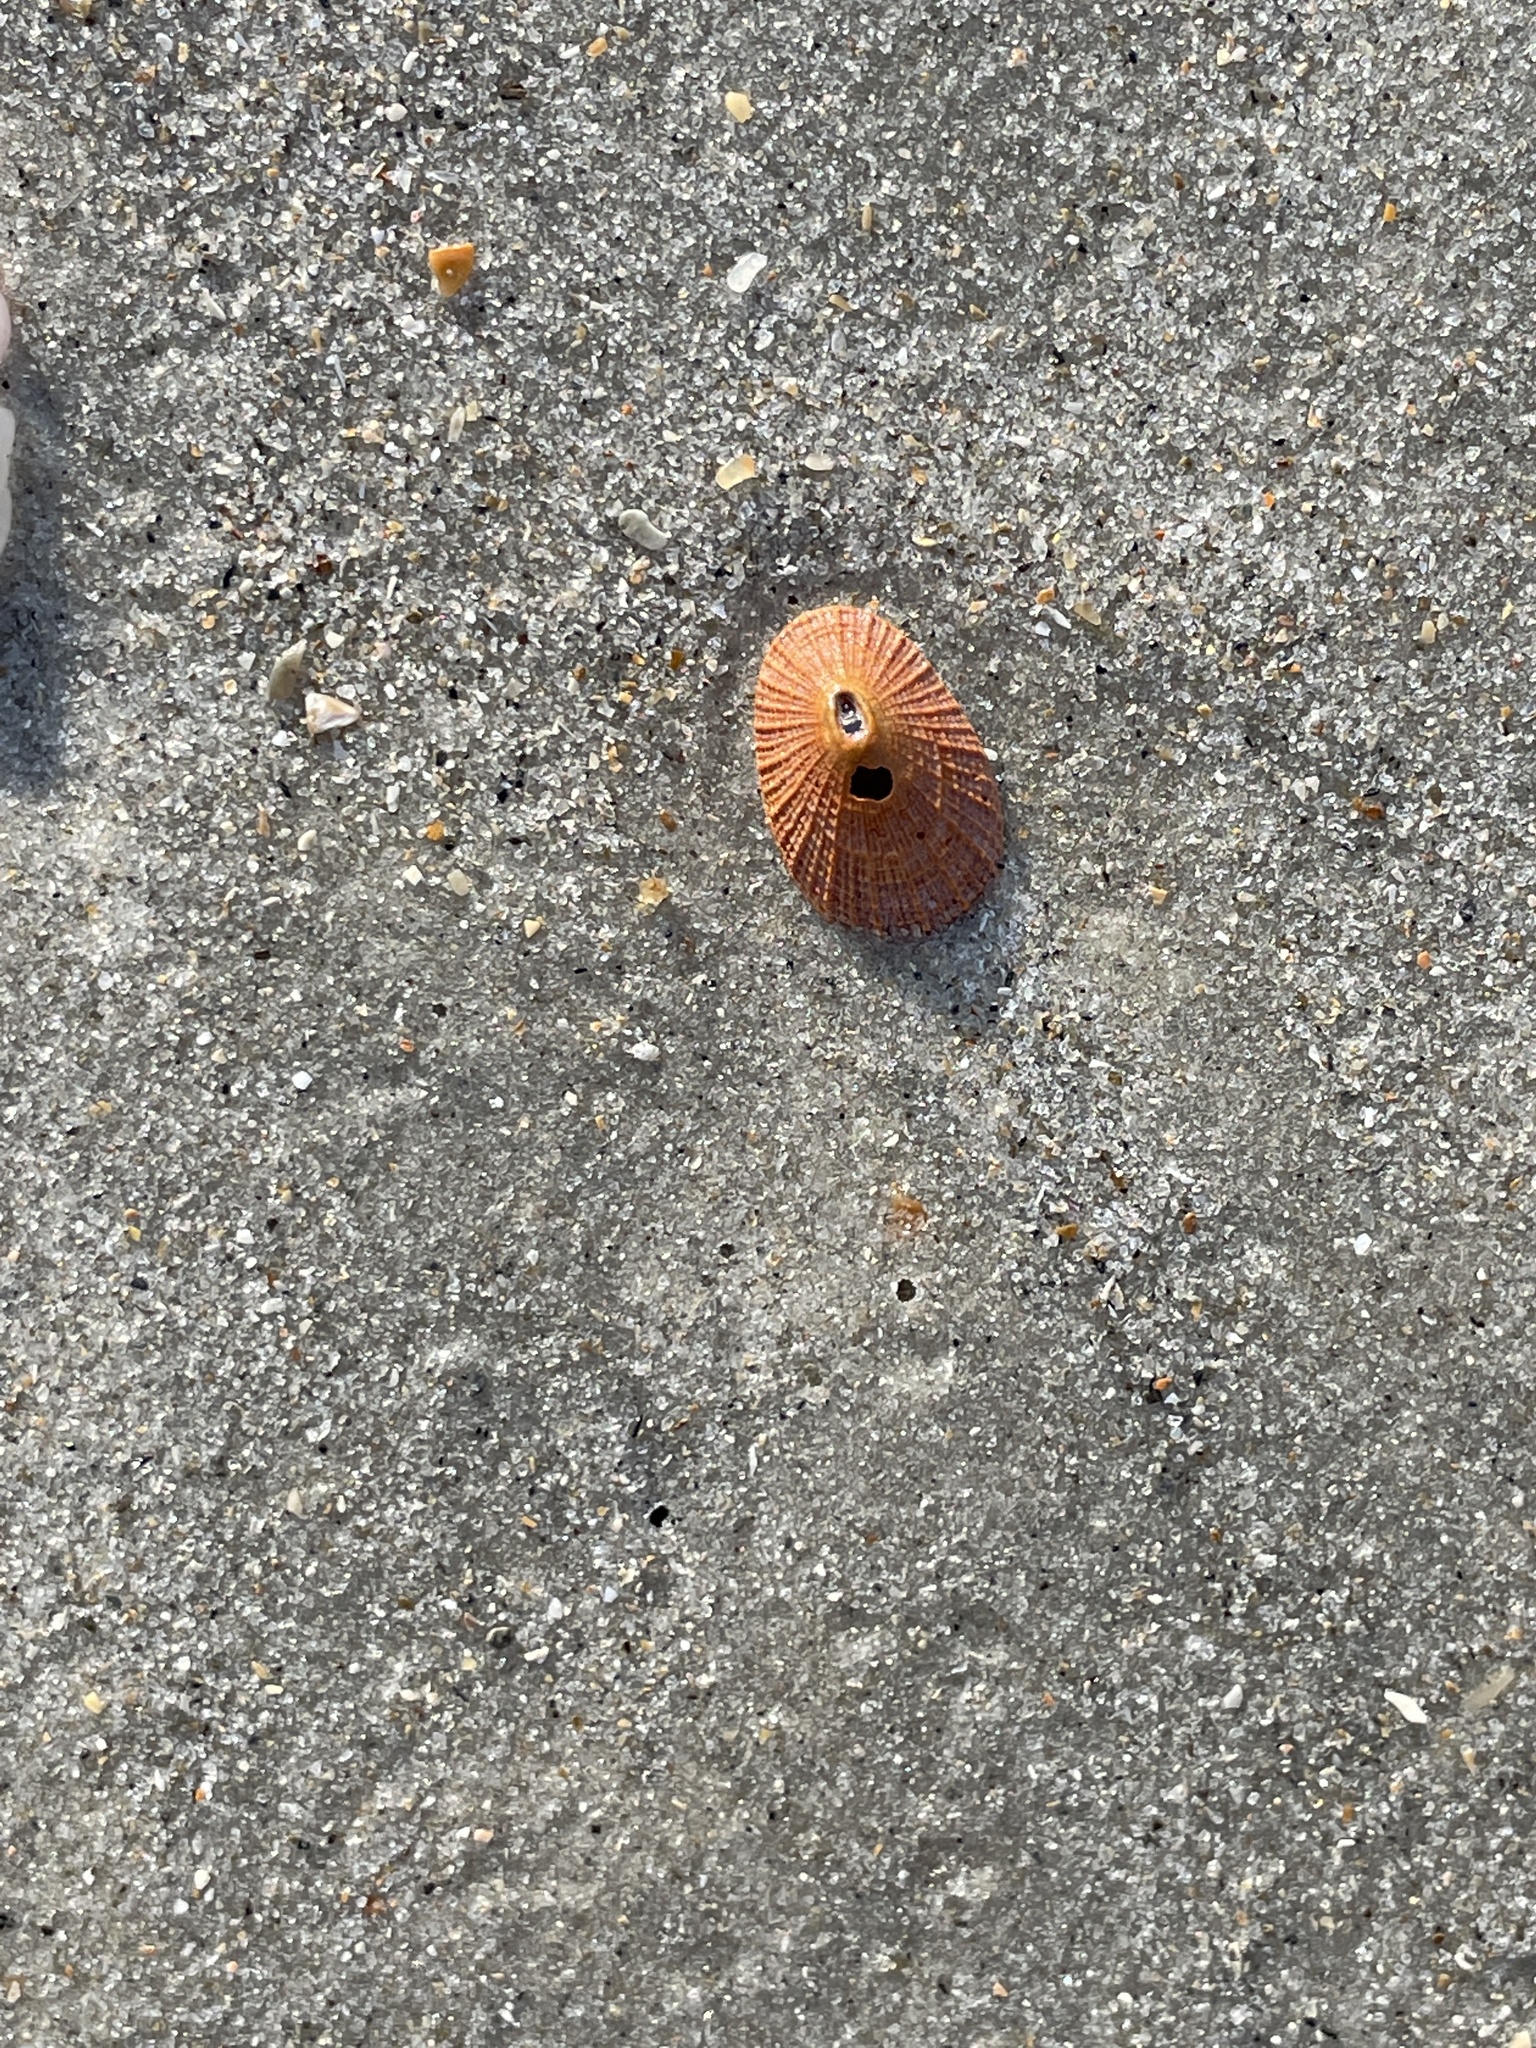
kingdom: Animalia
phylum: Mollusca
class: Gastropoda
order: Lepetellida
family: Fissurellidae
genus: Diodora
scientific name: Diodora cayenensis
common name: Cayenne keyhole limpet
